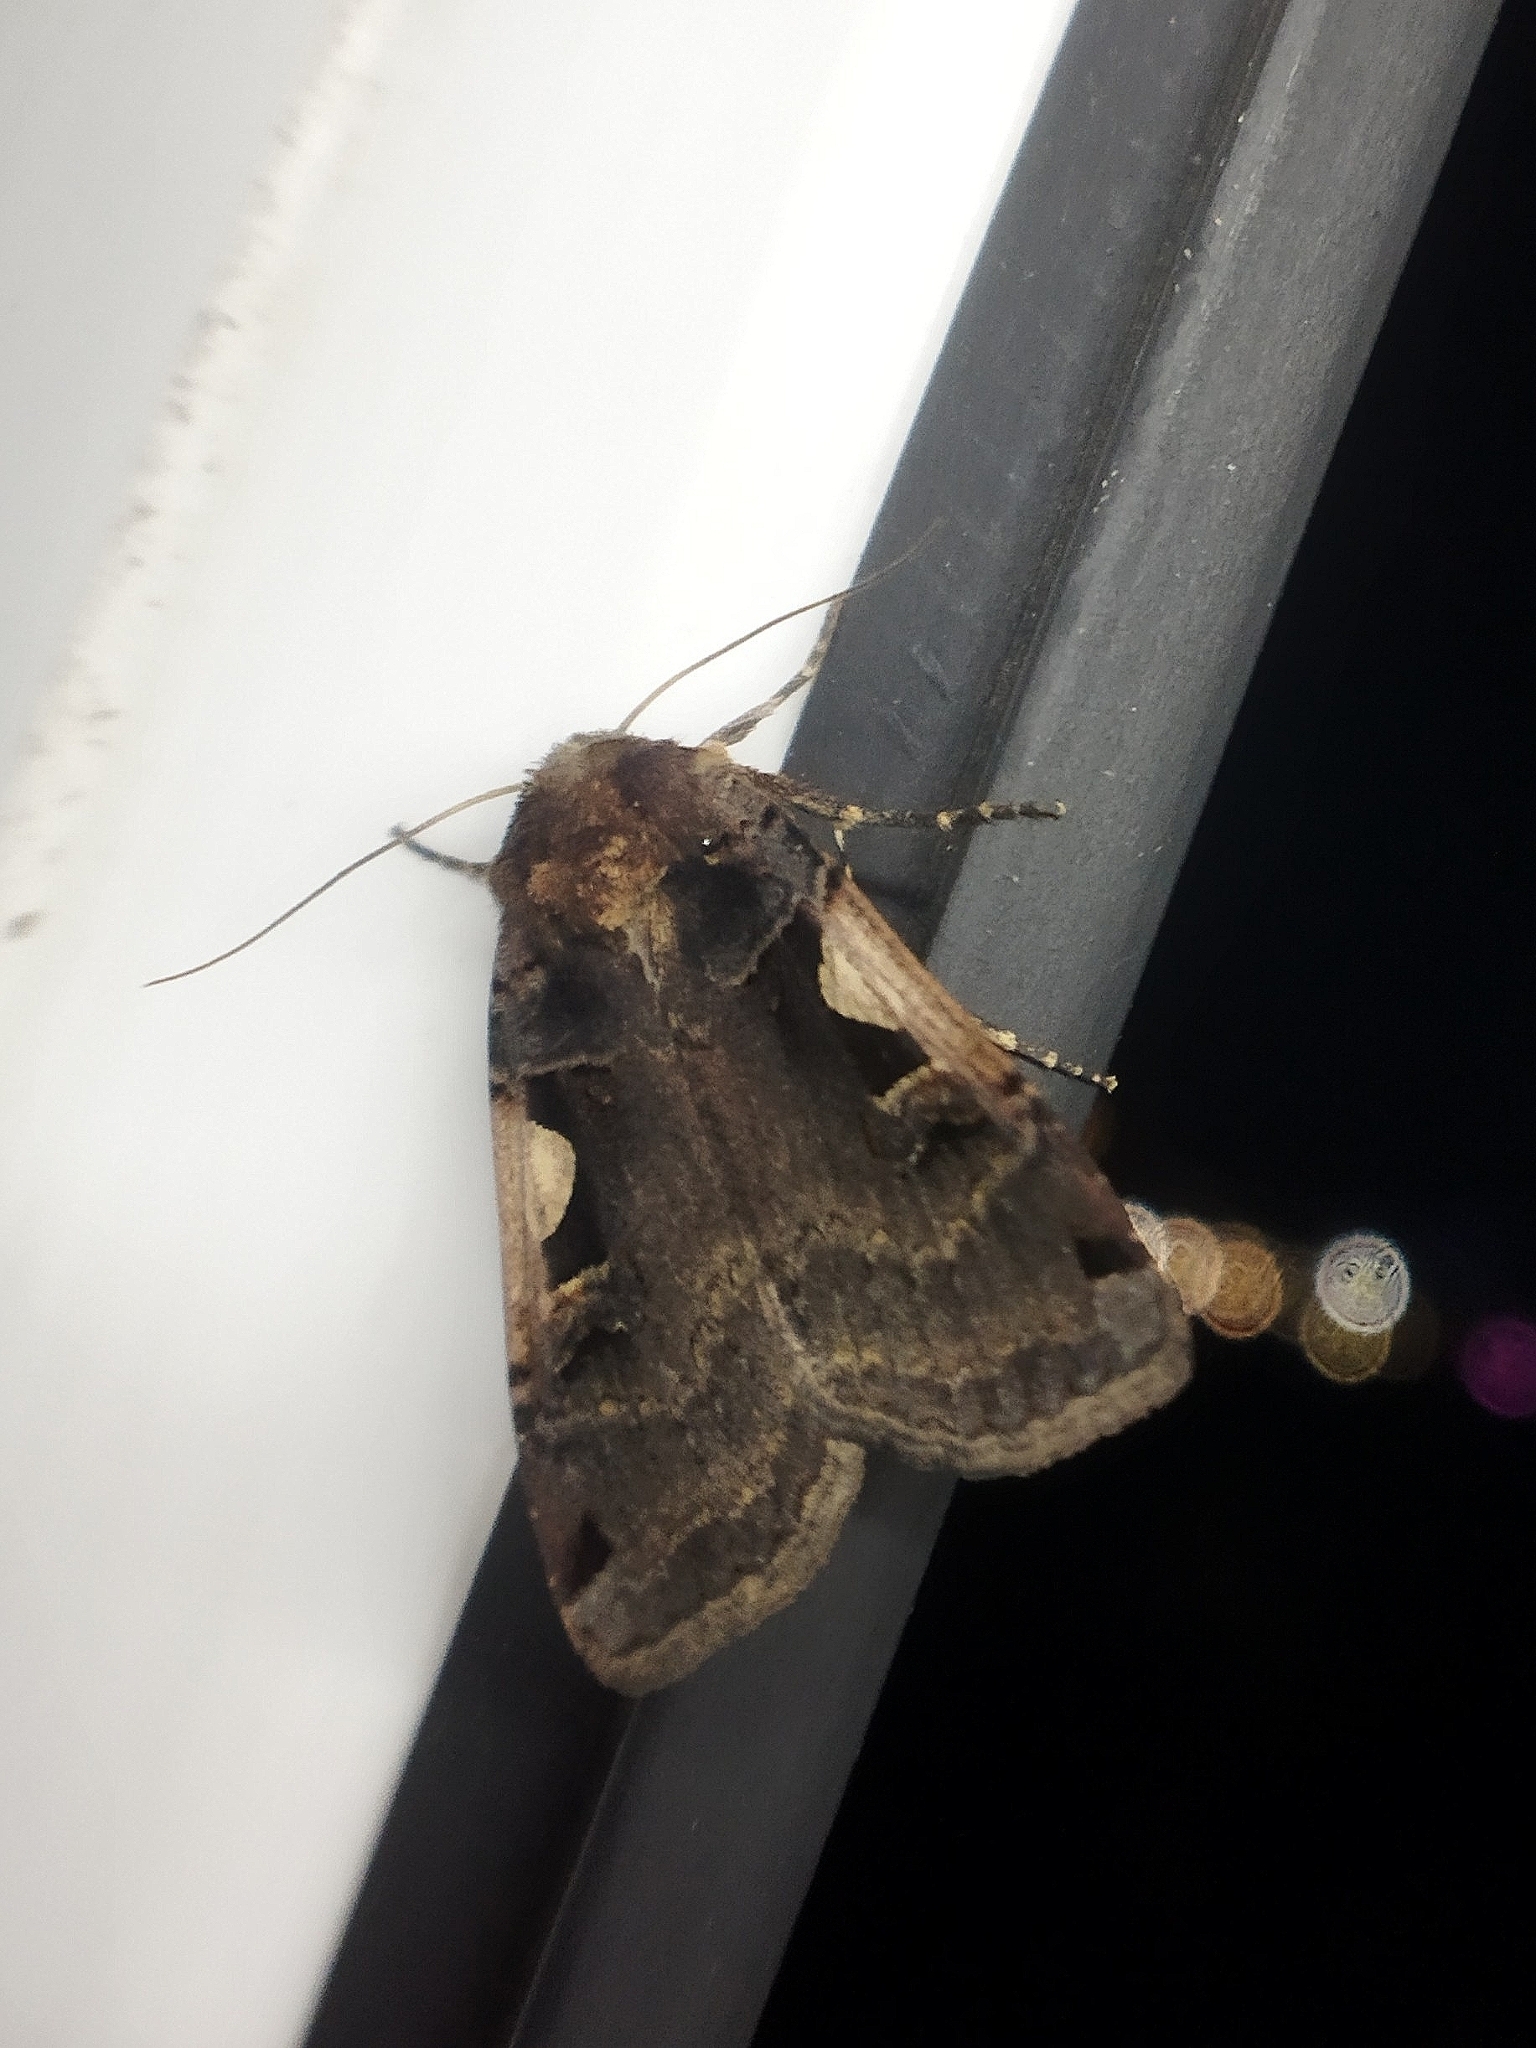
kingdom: Animalia
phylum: Arthropoda
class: Insecta
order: Lepidoptera
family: Noctuidae
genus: Xestia
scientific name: Xestia c-nigrum
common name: Setaceous hebrew character
